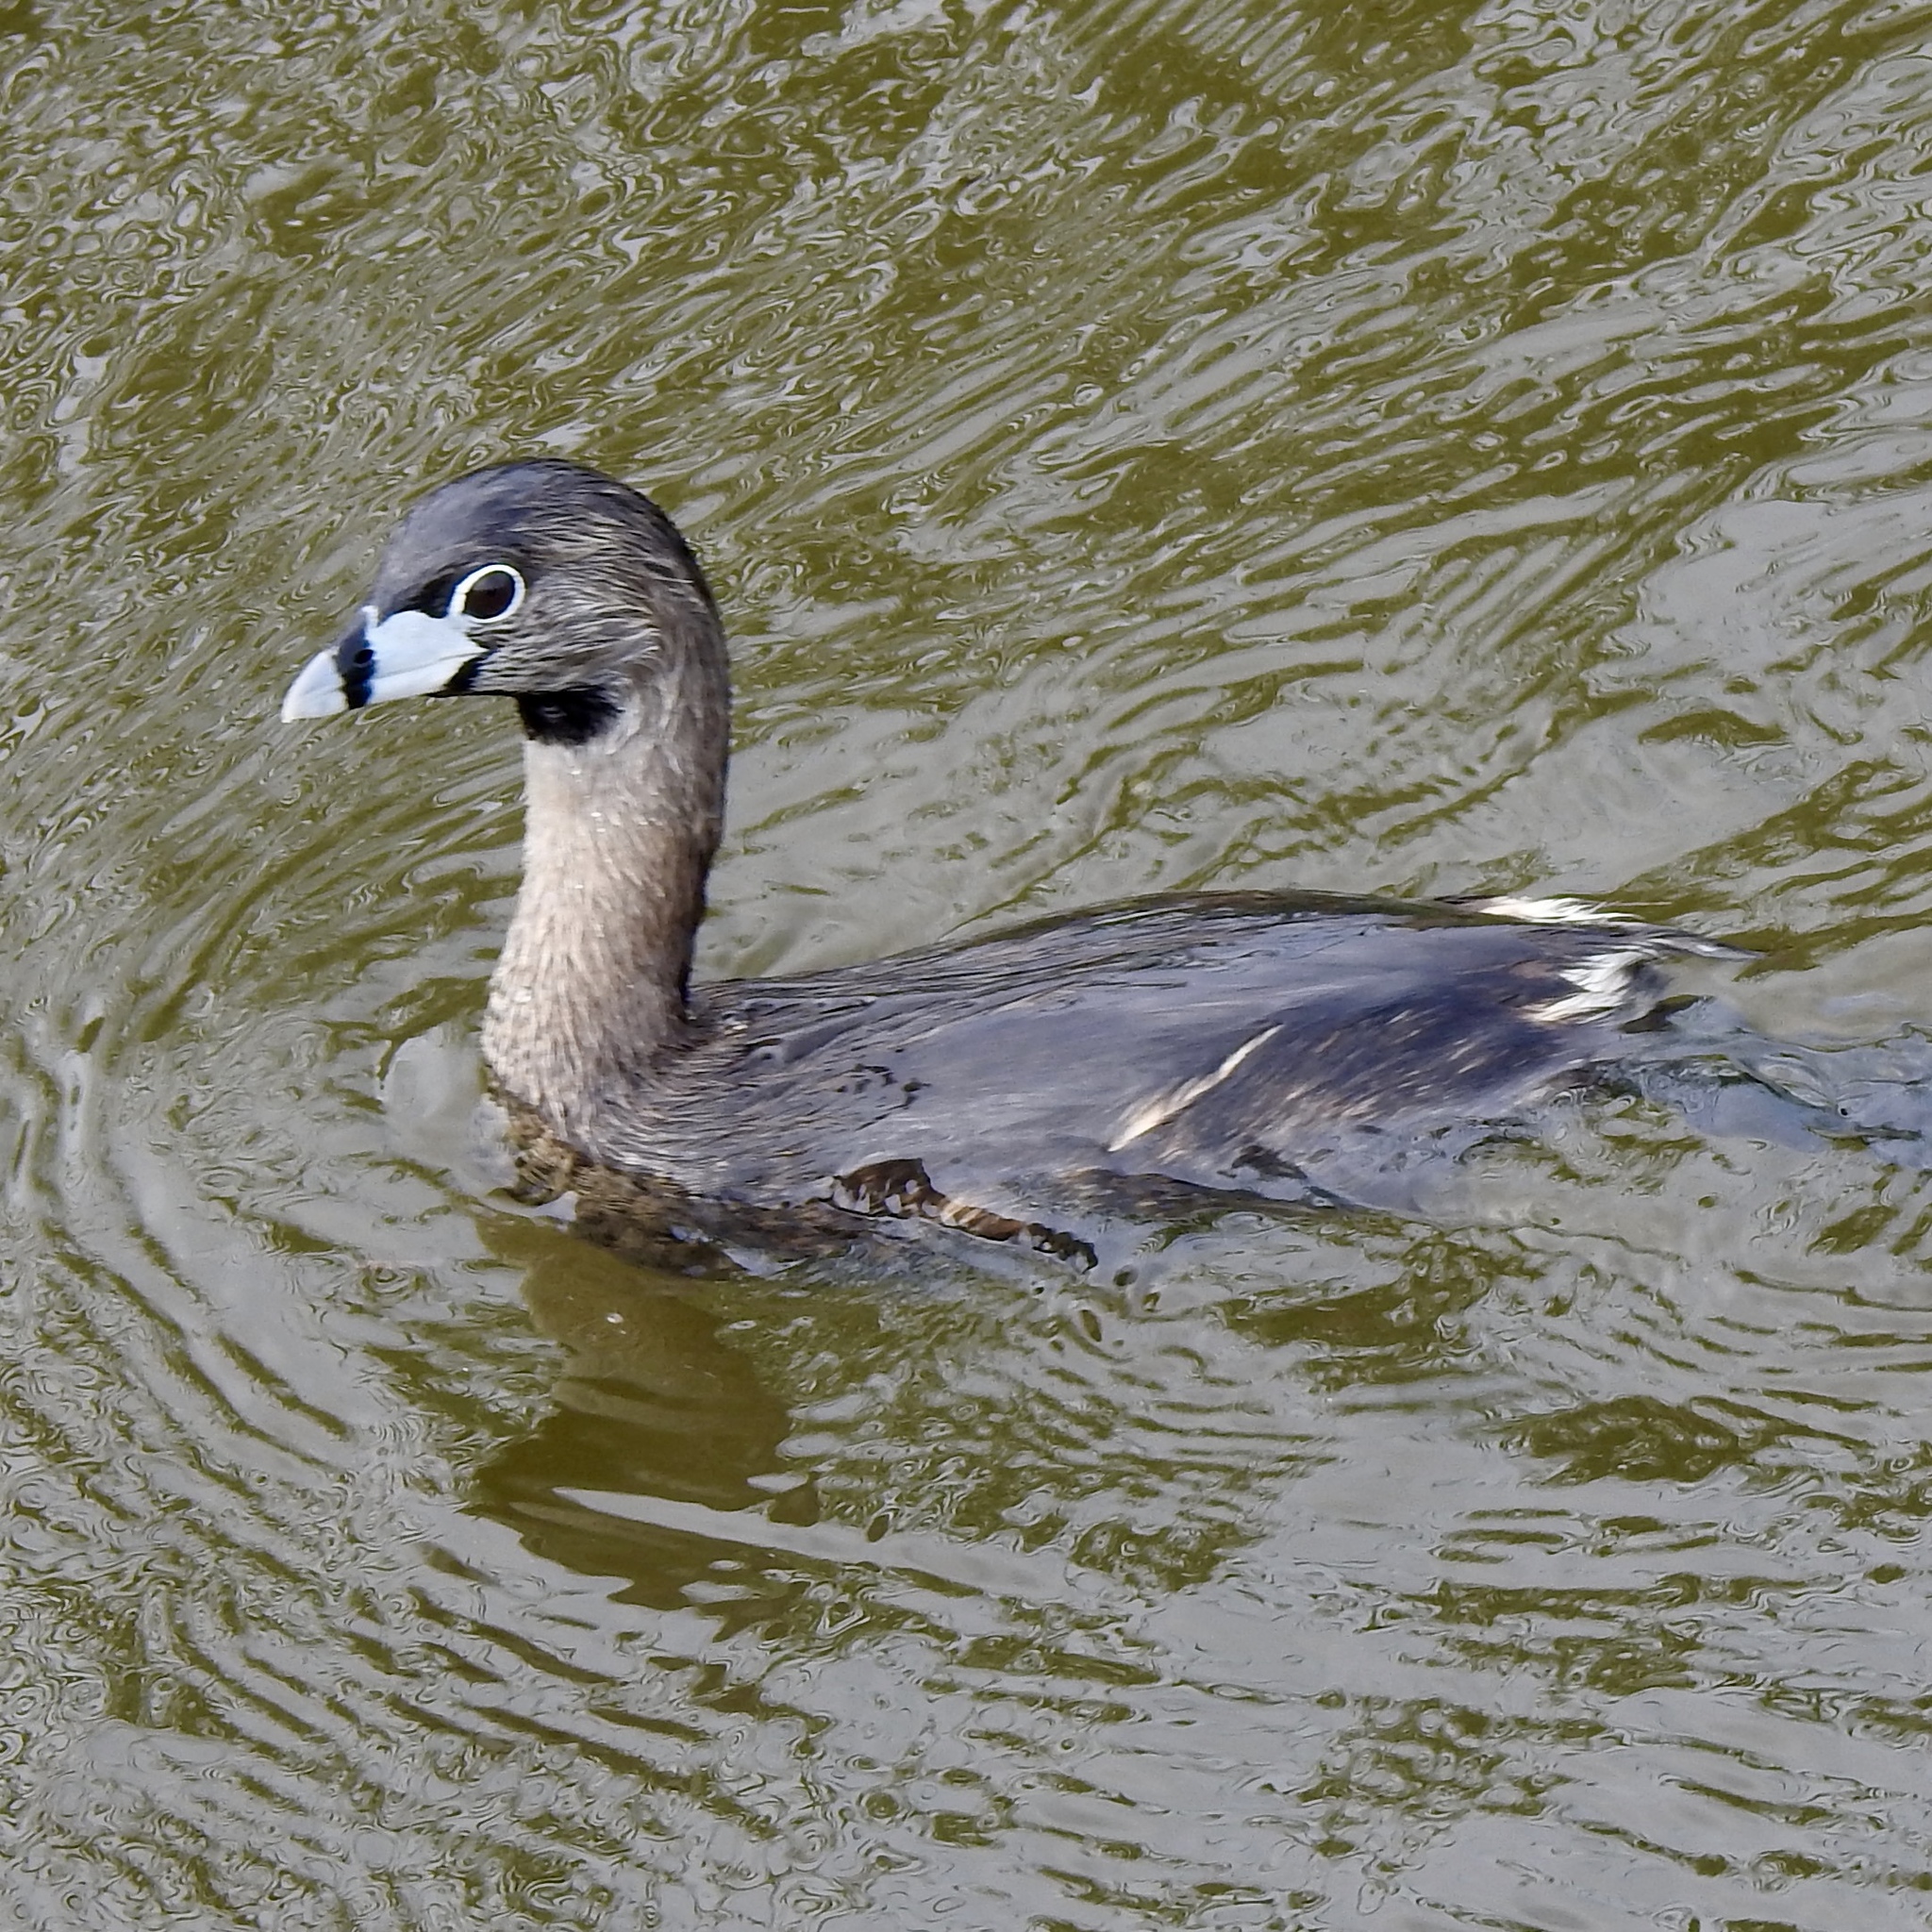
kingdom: Animalia
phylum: Chordata
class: Aves
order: Podicipediformes
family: Podicipedidae
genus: Podilymbus
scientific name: Podilymbus podiceps
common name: Pied-billed grebe
